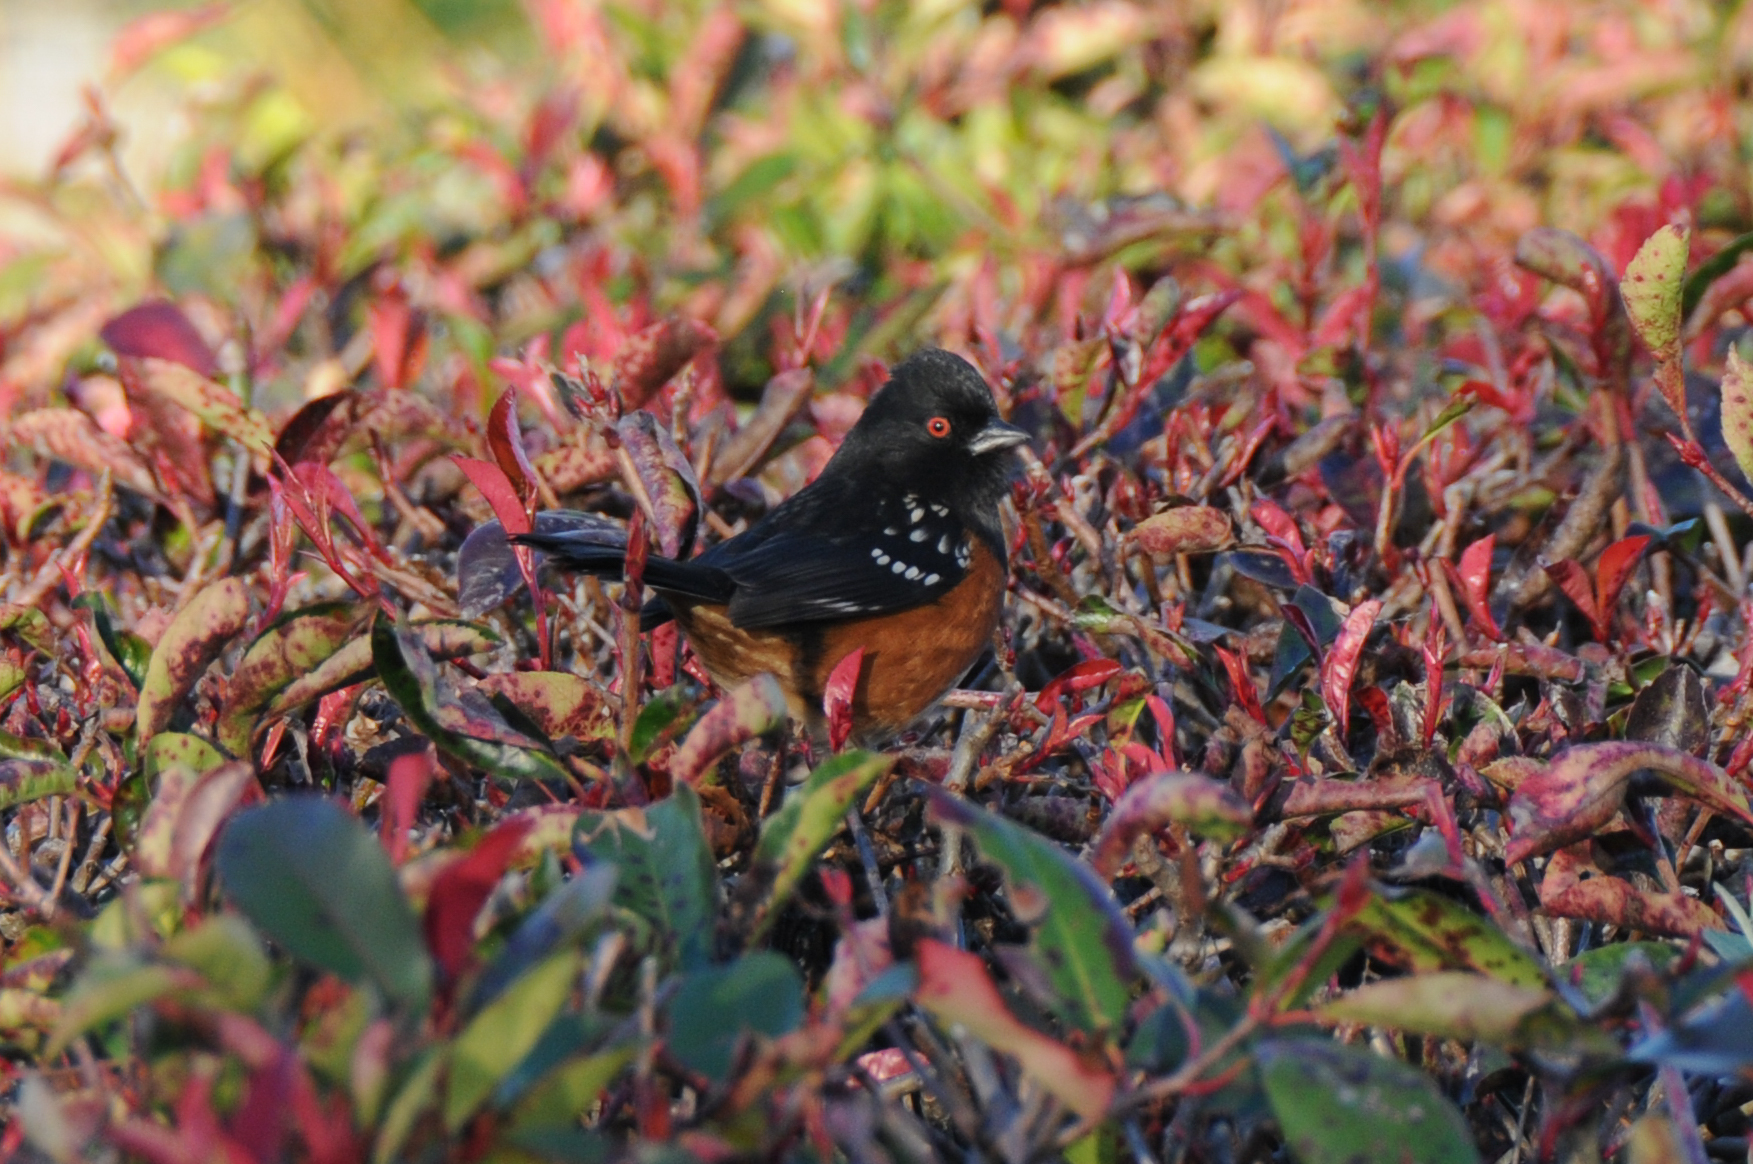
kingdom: Animalia
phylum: Chordata
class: Aves
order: Passeriformes
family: Passerellidae
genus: Pipilo
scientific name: Pipilo maculatus
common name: Spotted towhee
